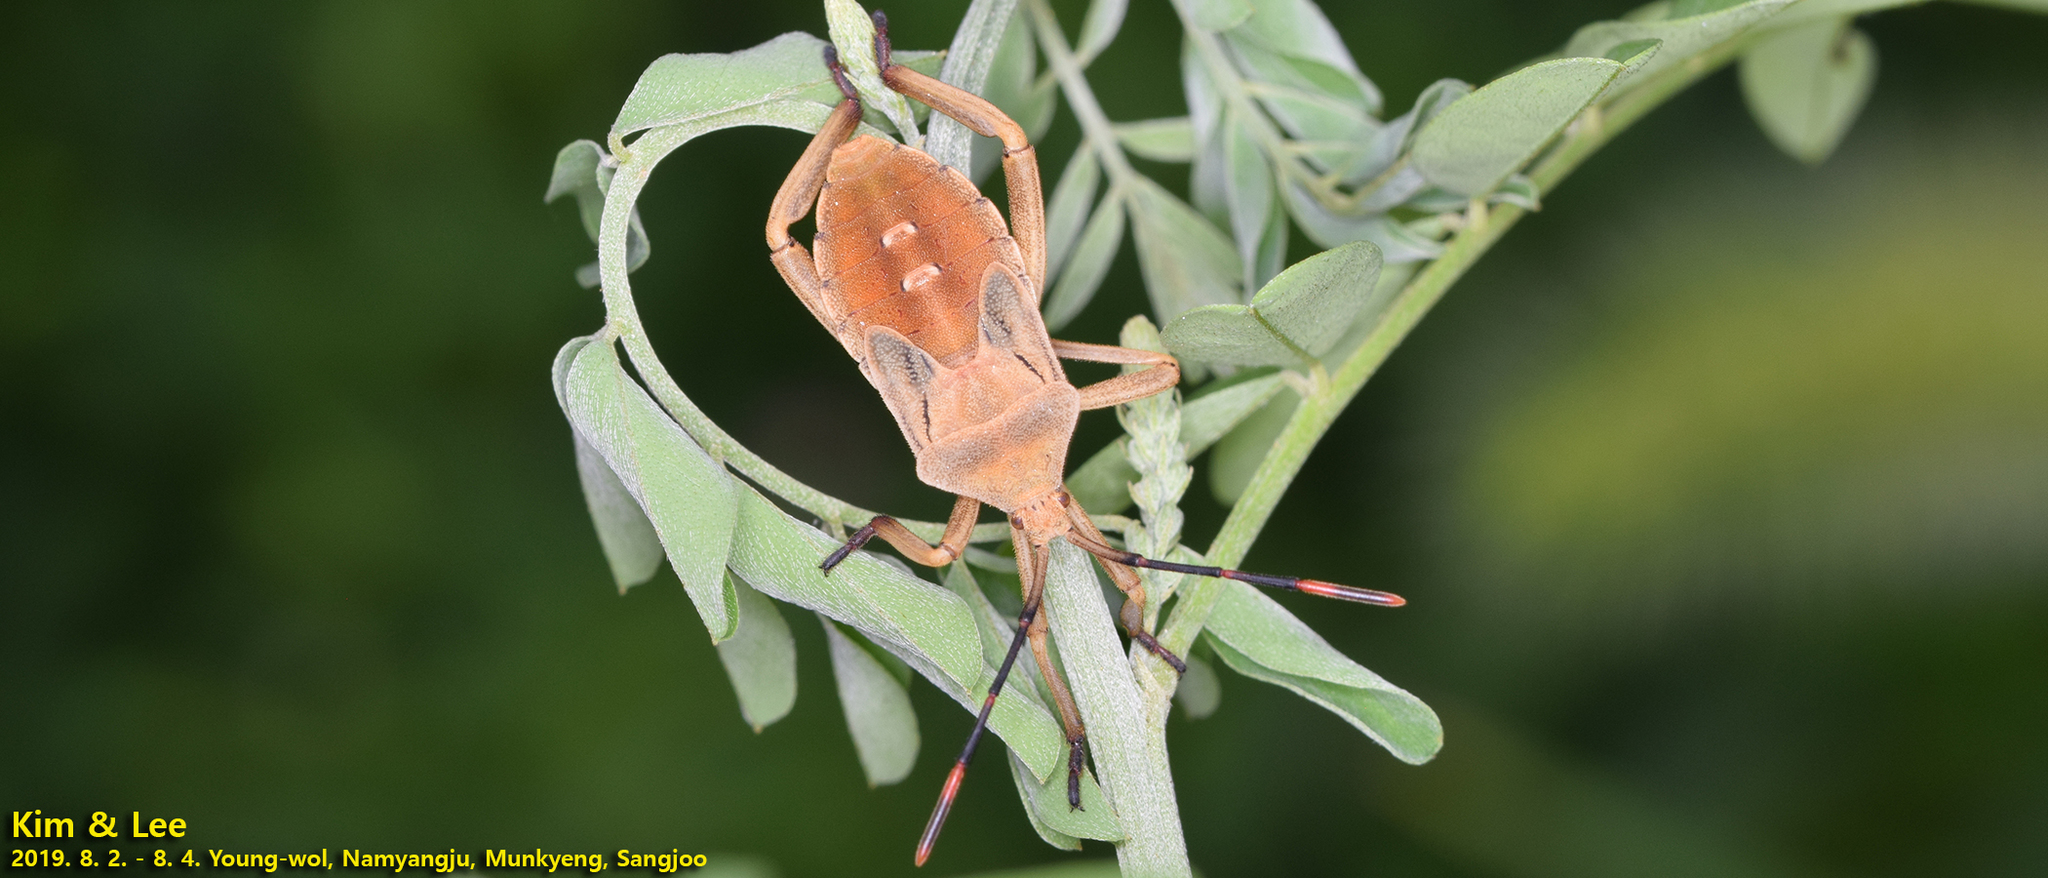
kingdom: Animalia
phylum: Arthropoda
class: Insecta
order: Hemiptera
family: Coreidae
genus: Anoplocnemis
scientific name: Anoplocnemis dallasi
